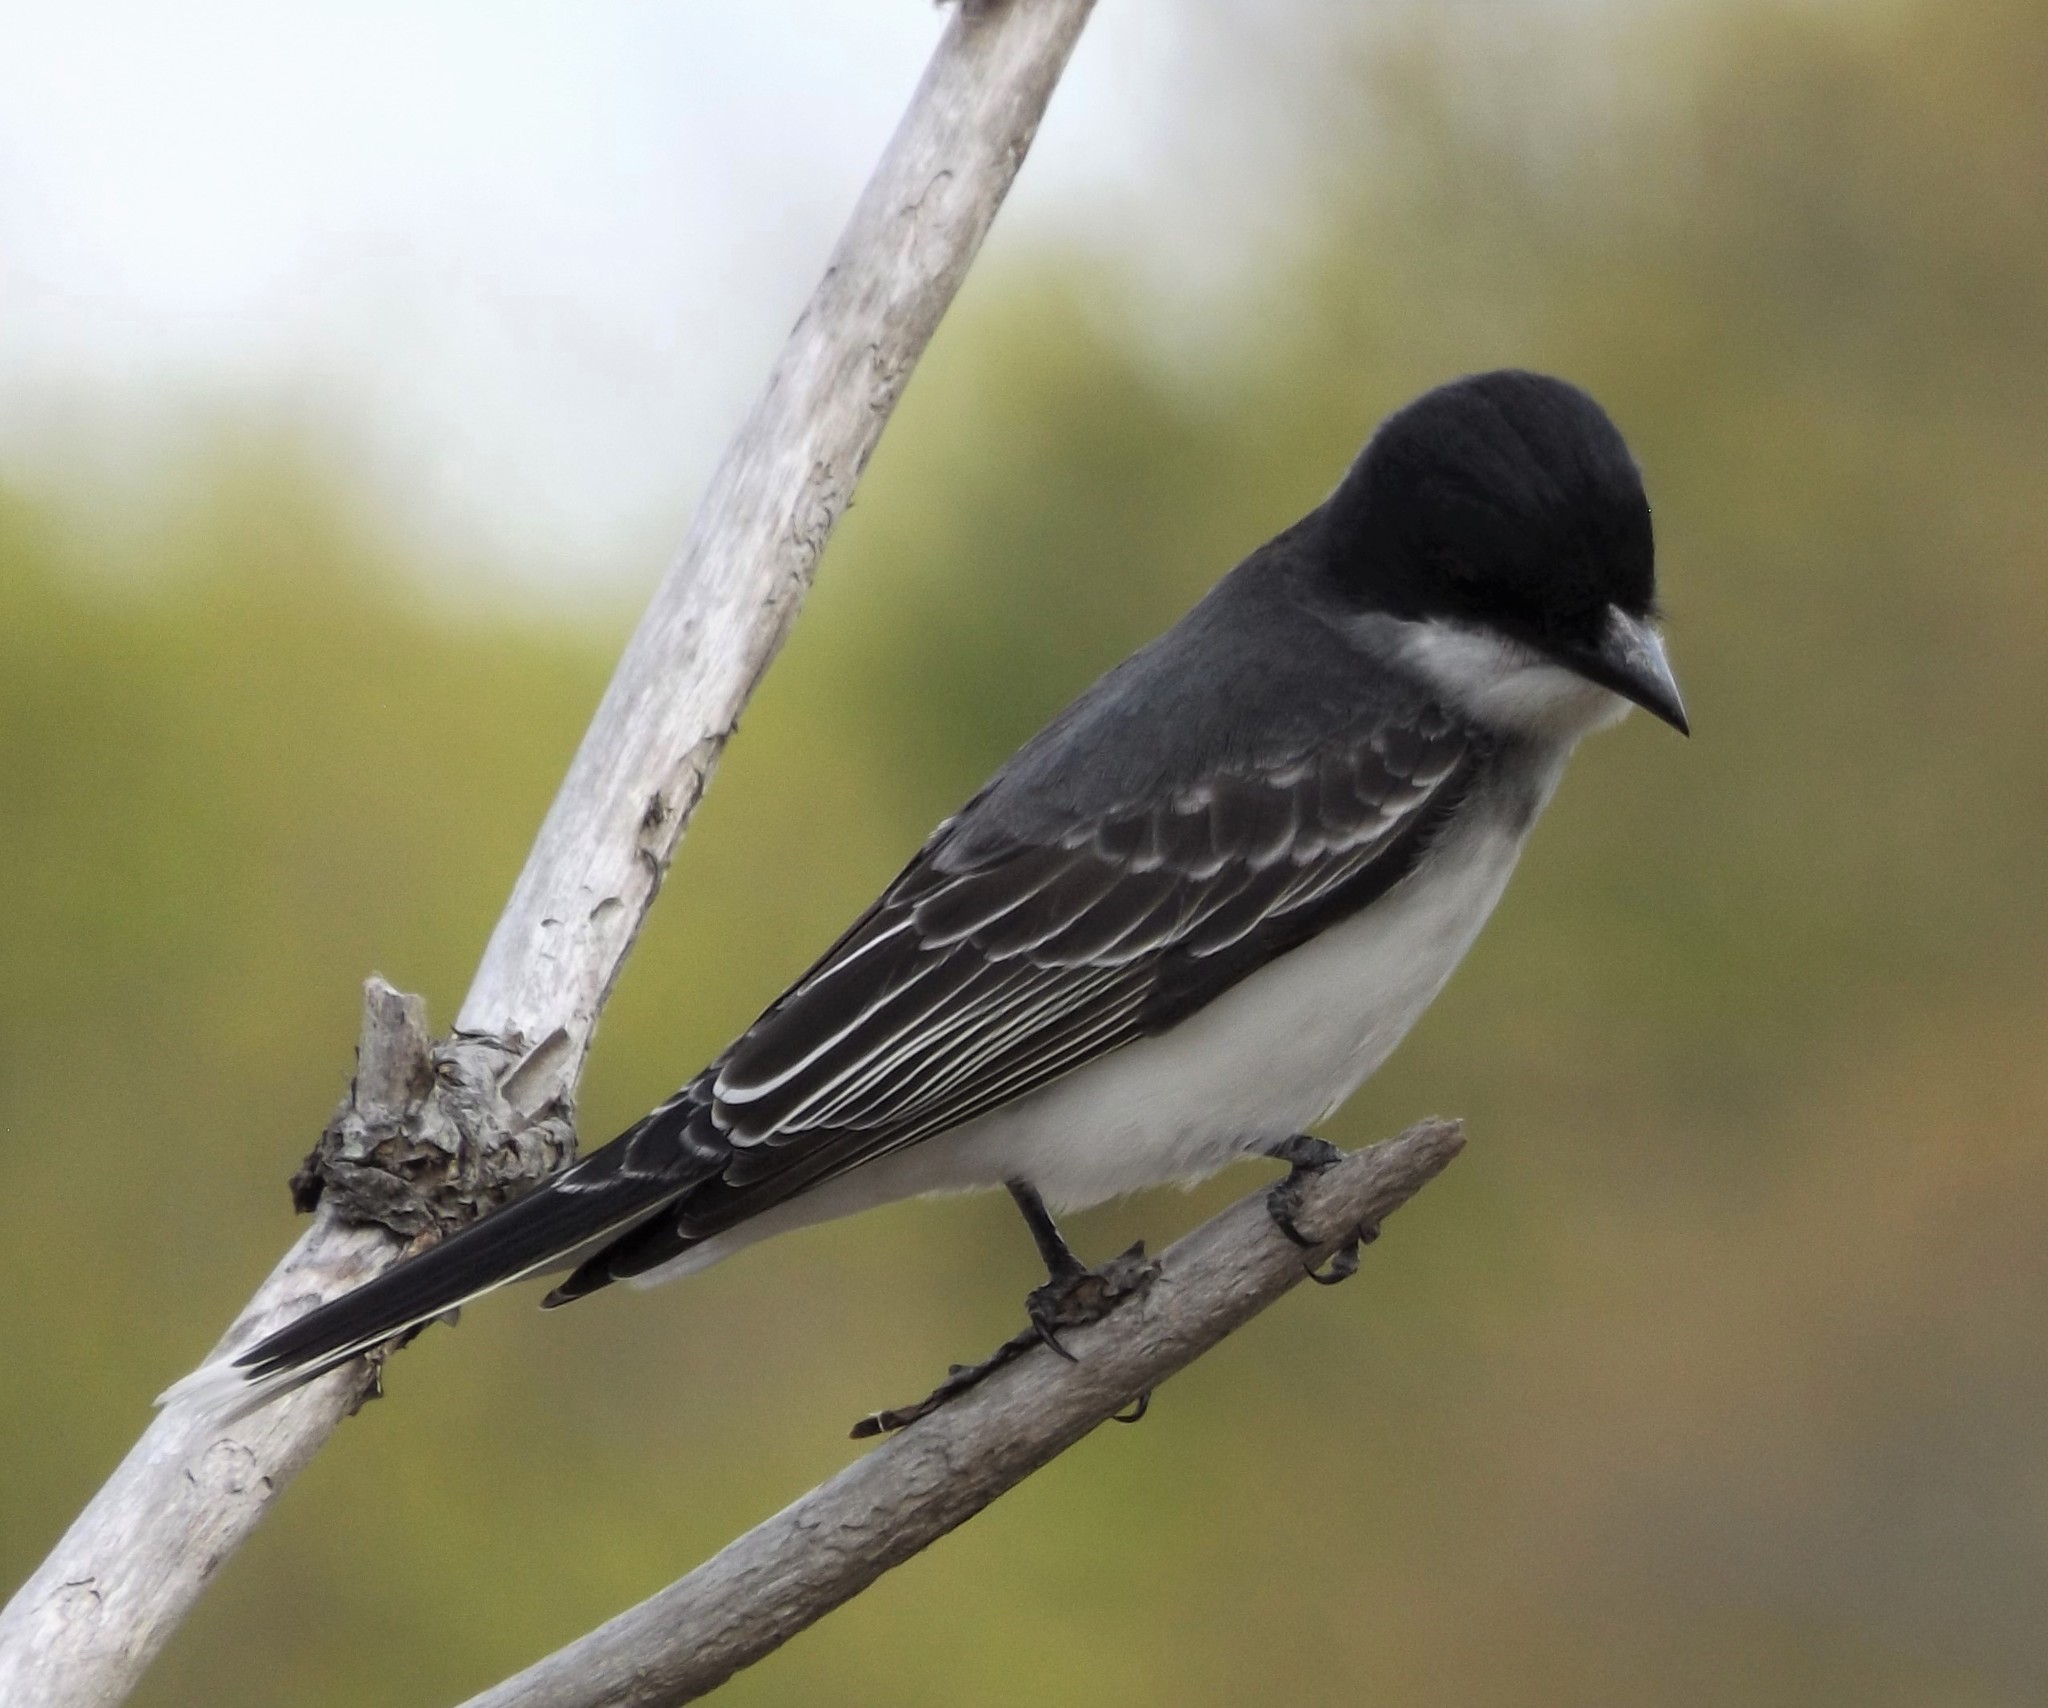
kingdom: Animalia
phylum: Chordata
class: Aves
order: Passeriformes
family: Tyrannidae
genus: Tyrannus
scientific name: Tyrannus tyrannus
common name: Eastern kingbird
